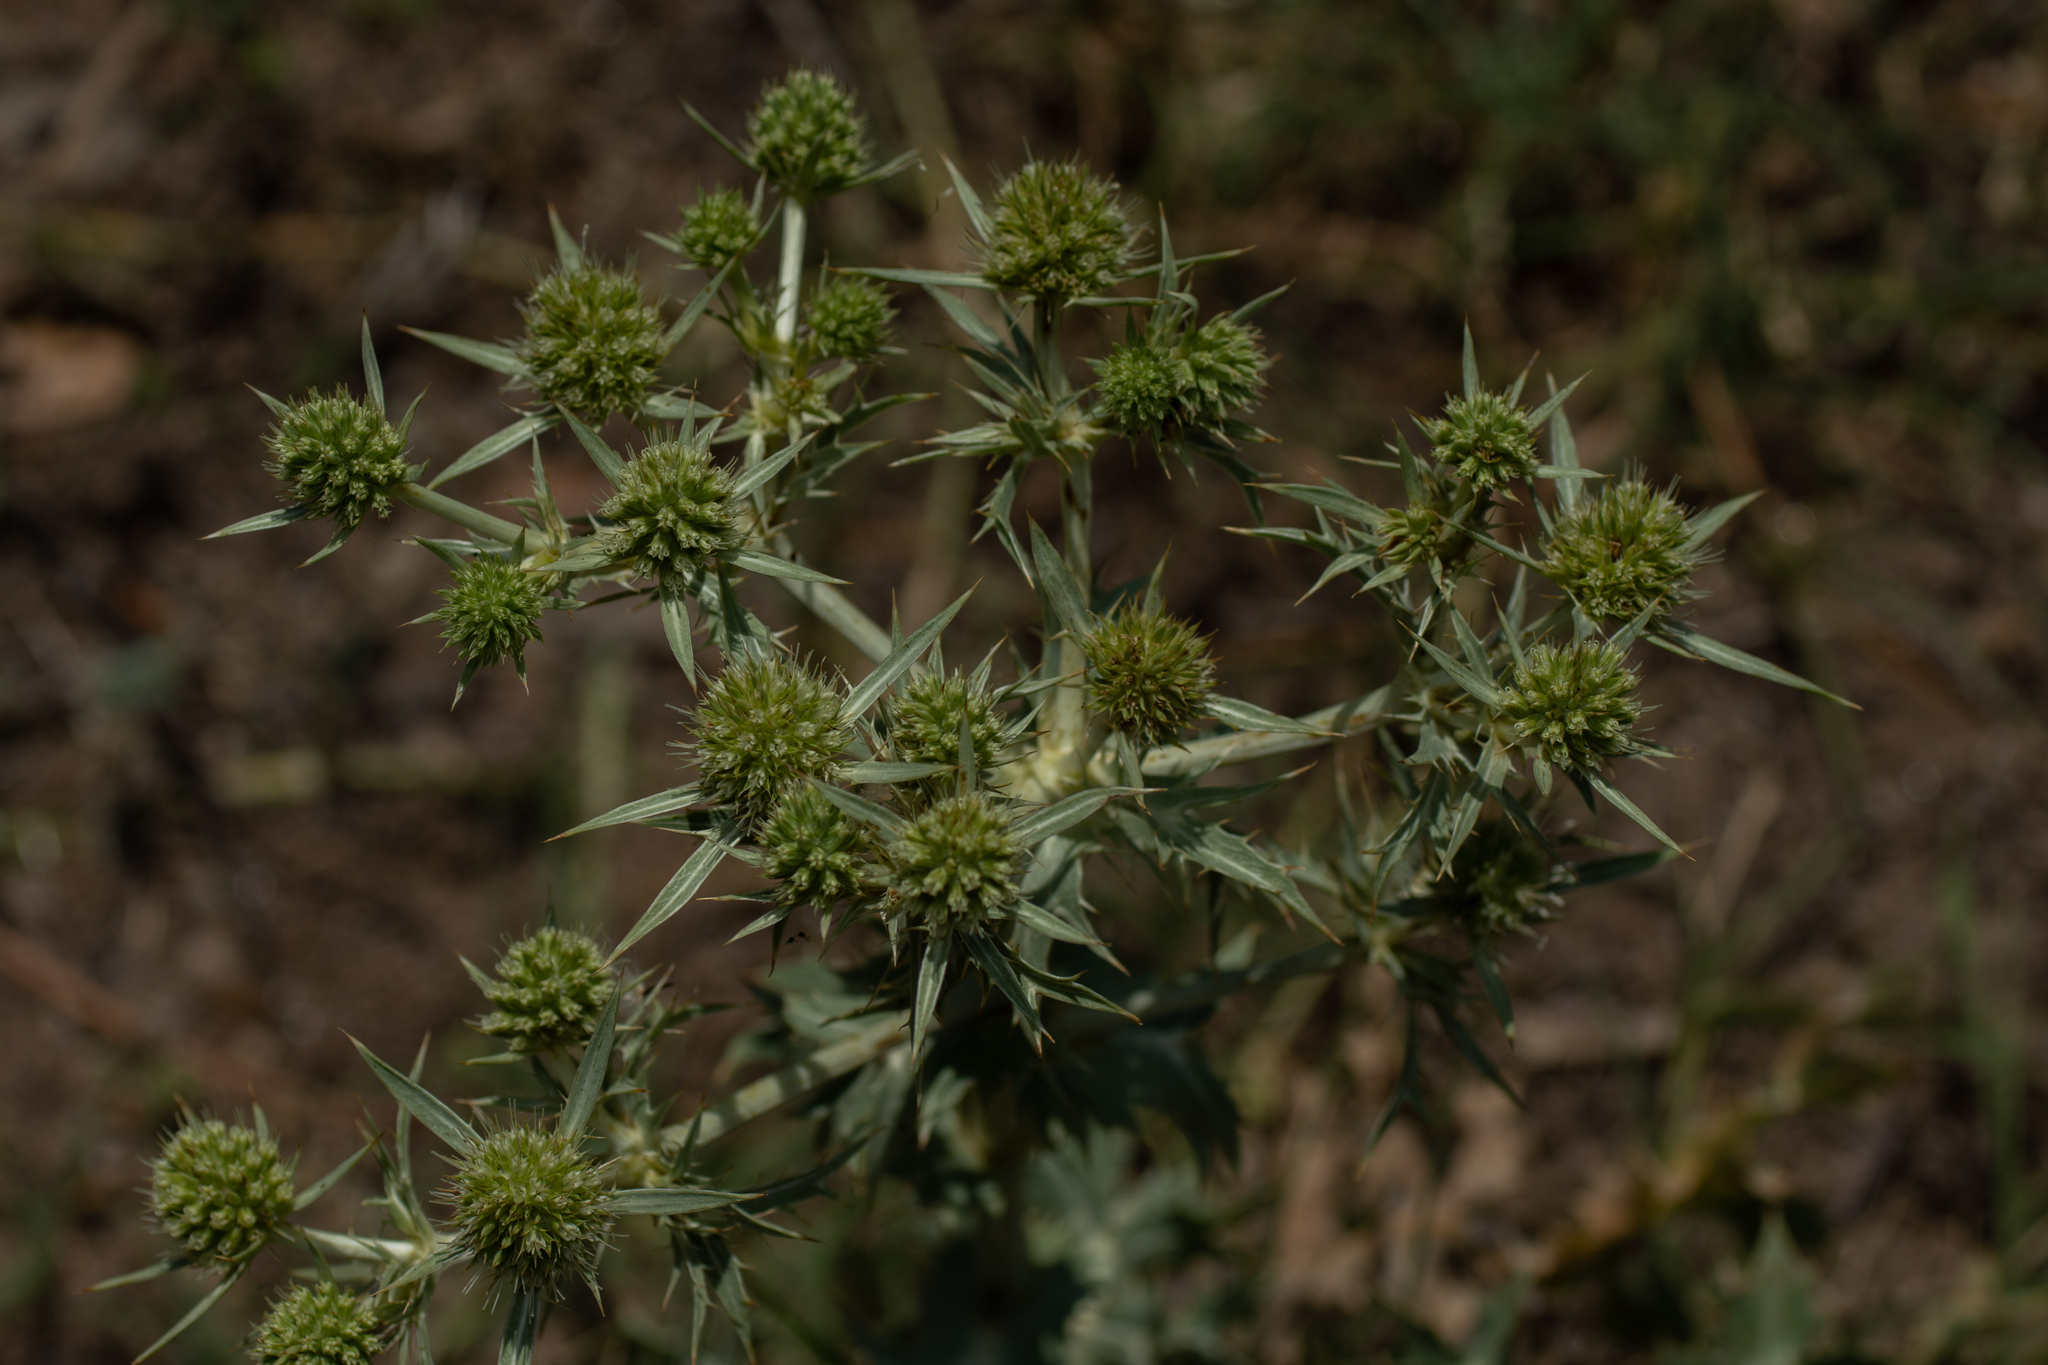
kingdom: Plantae
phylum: Tracheophyta
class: Magnoliopsida
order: Apiales
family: Apiaceae
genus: Eryngium
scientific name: Eryngium campestre
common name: Field eryngo
